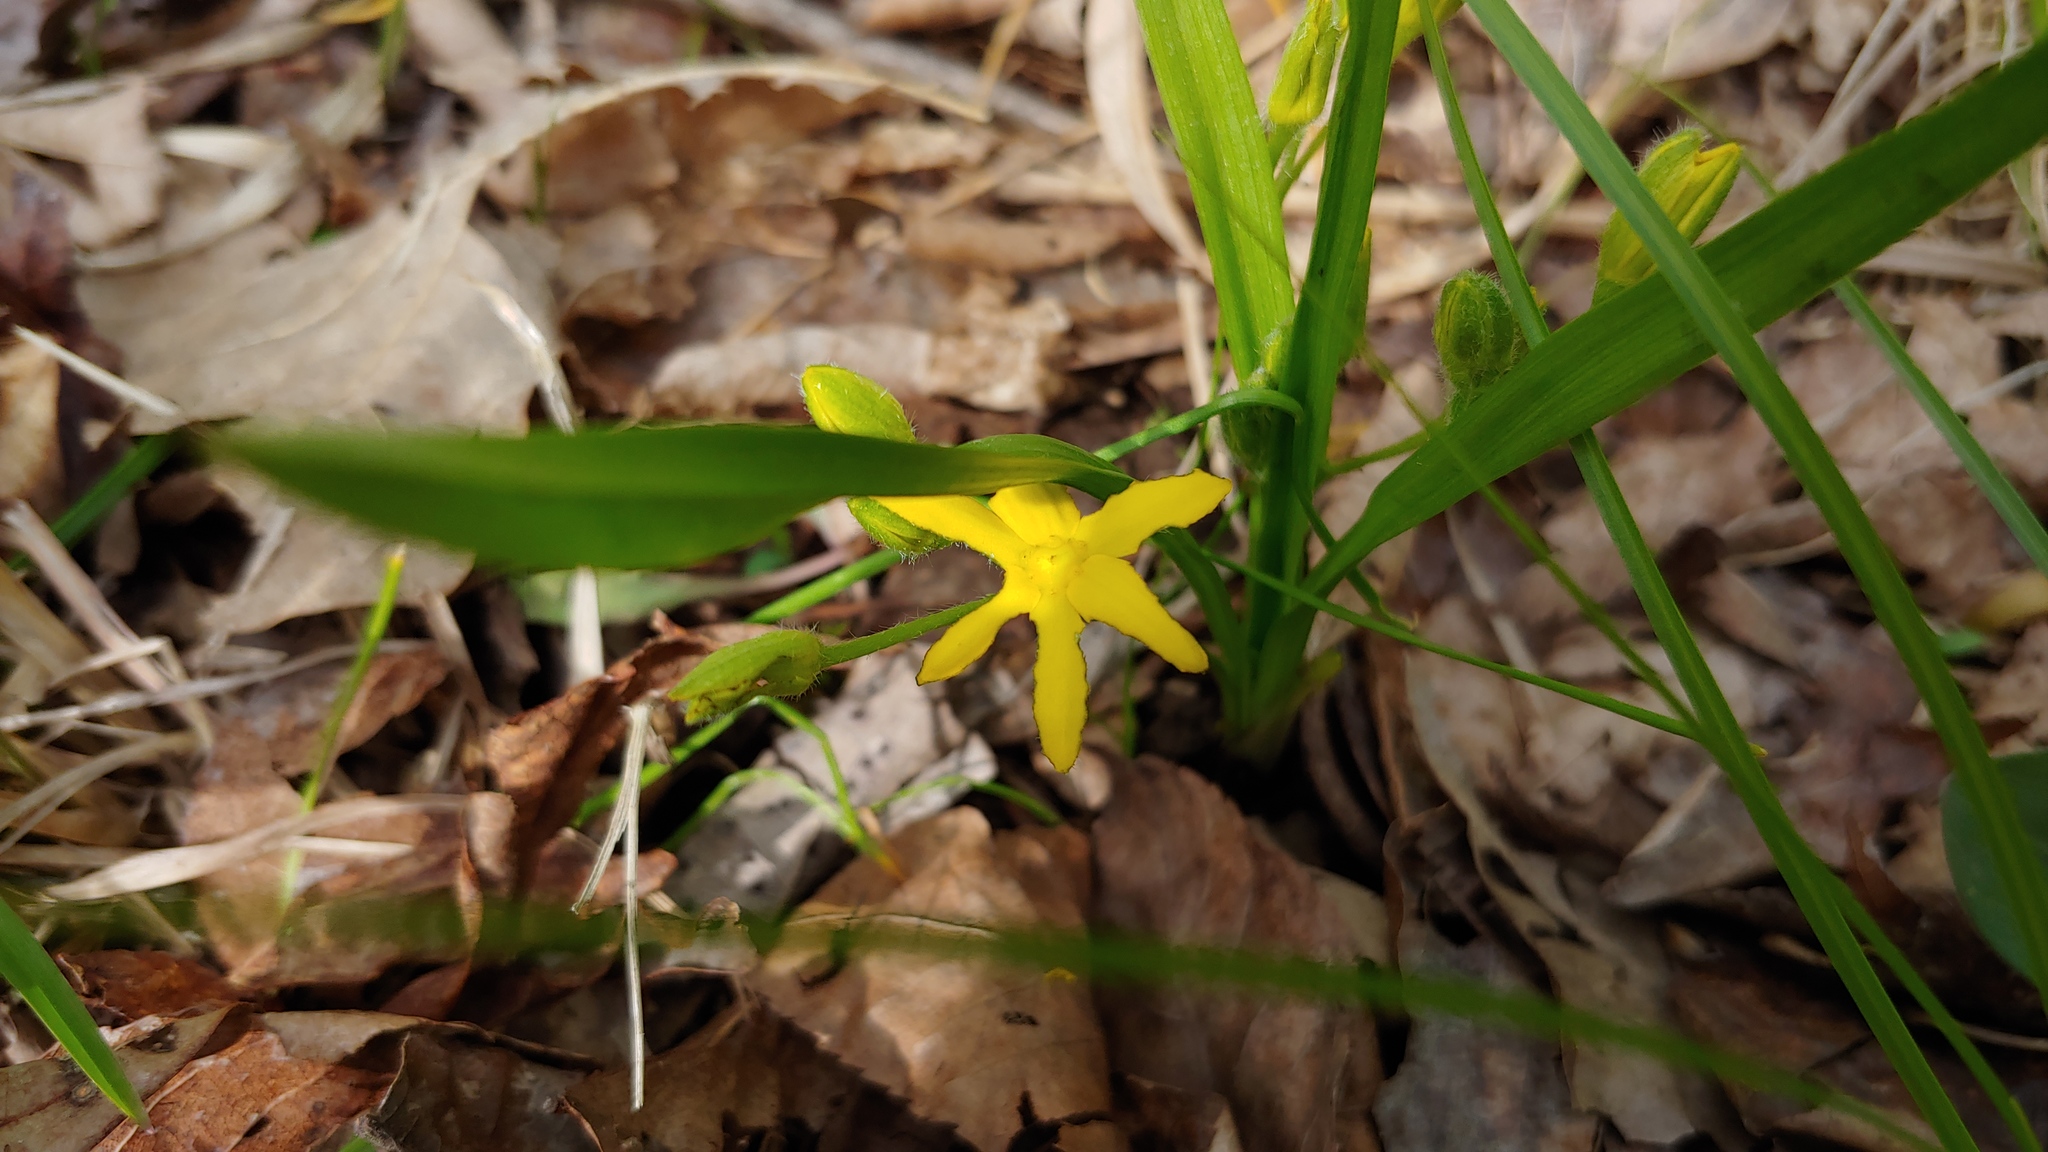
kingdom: Plantae
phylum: Tracheophyta
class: Liliopsida
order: Asparagales
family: Hypoxidaceae
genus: Hypoxis
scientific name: Hypoxis hirsuta
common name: Common goldstar
